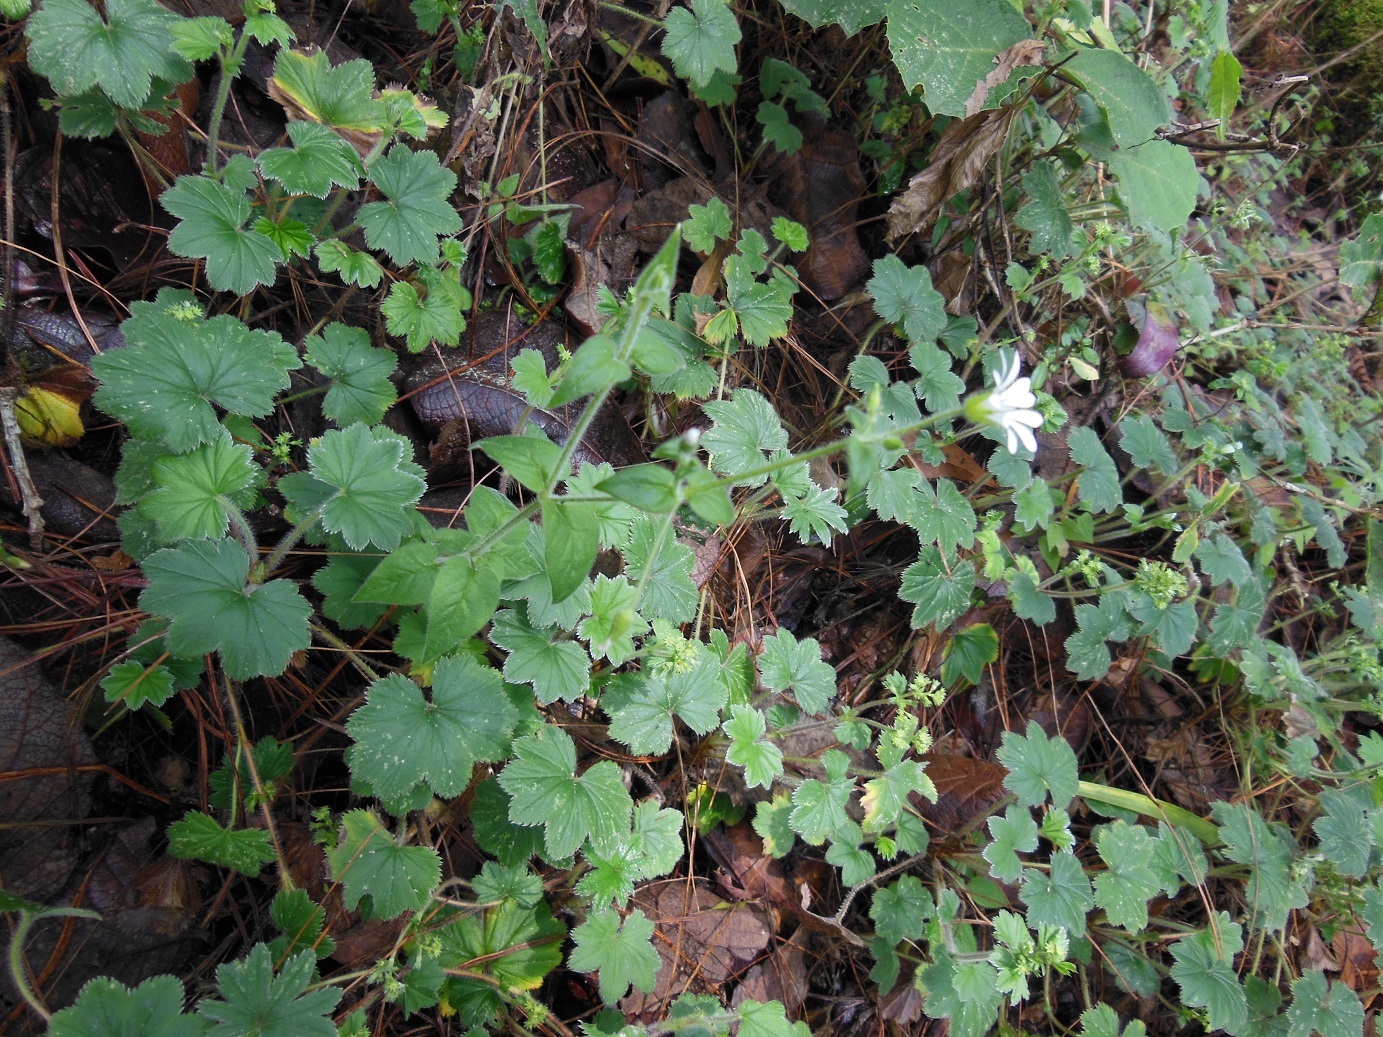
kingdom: Plantae
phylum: Tracheophyta
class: Magnoliopsida
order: Rosales
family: Rosaceae
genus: Lachemilla
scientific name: Lachemilla pectinata
